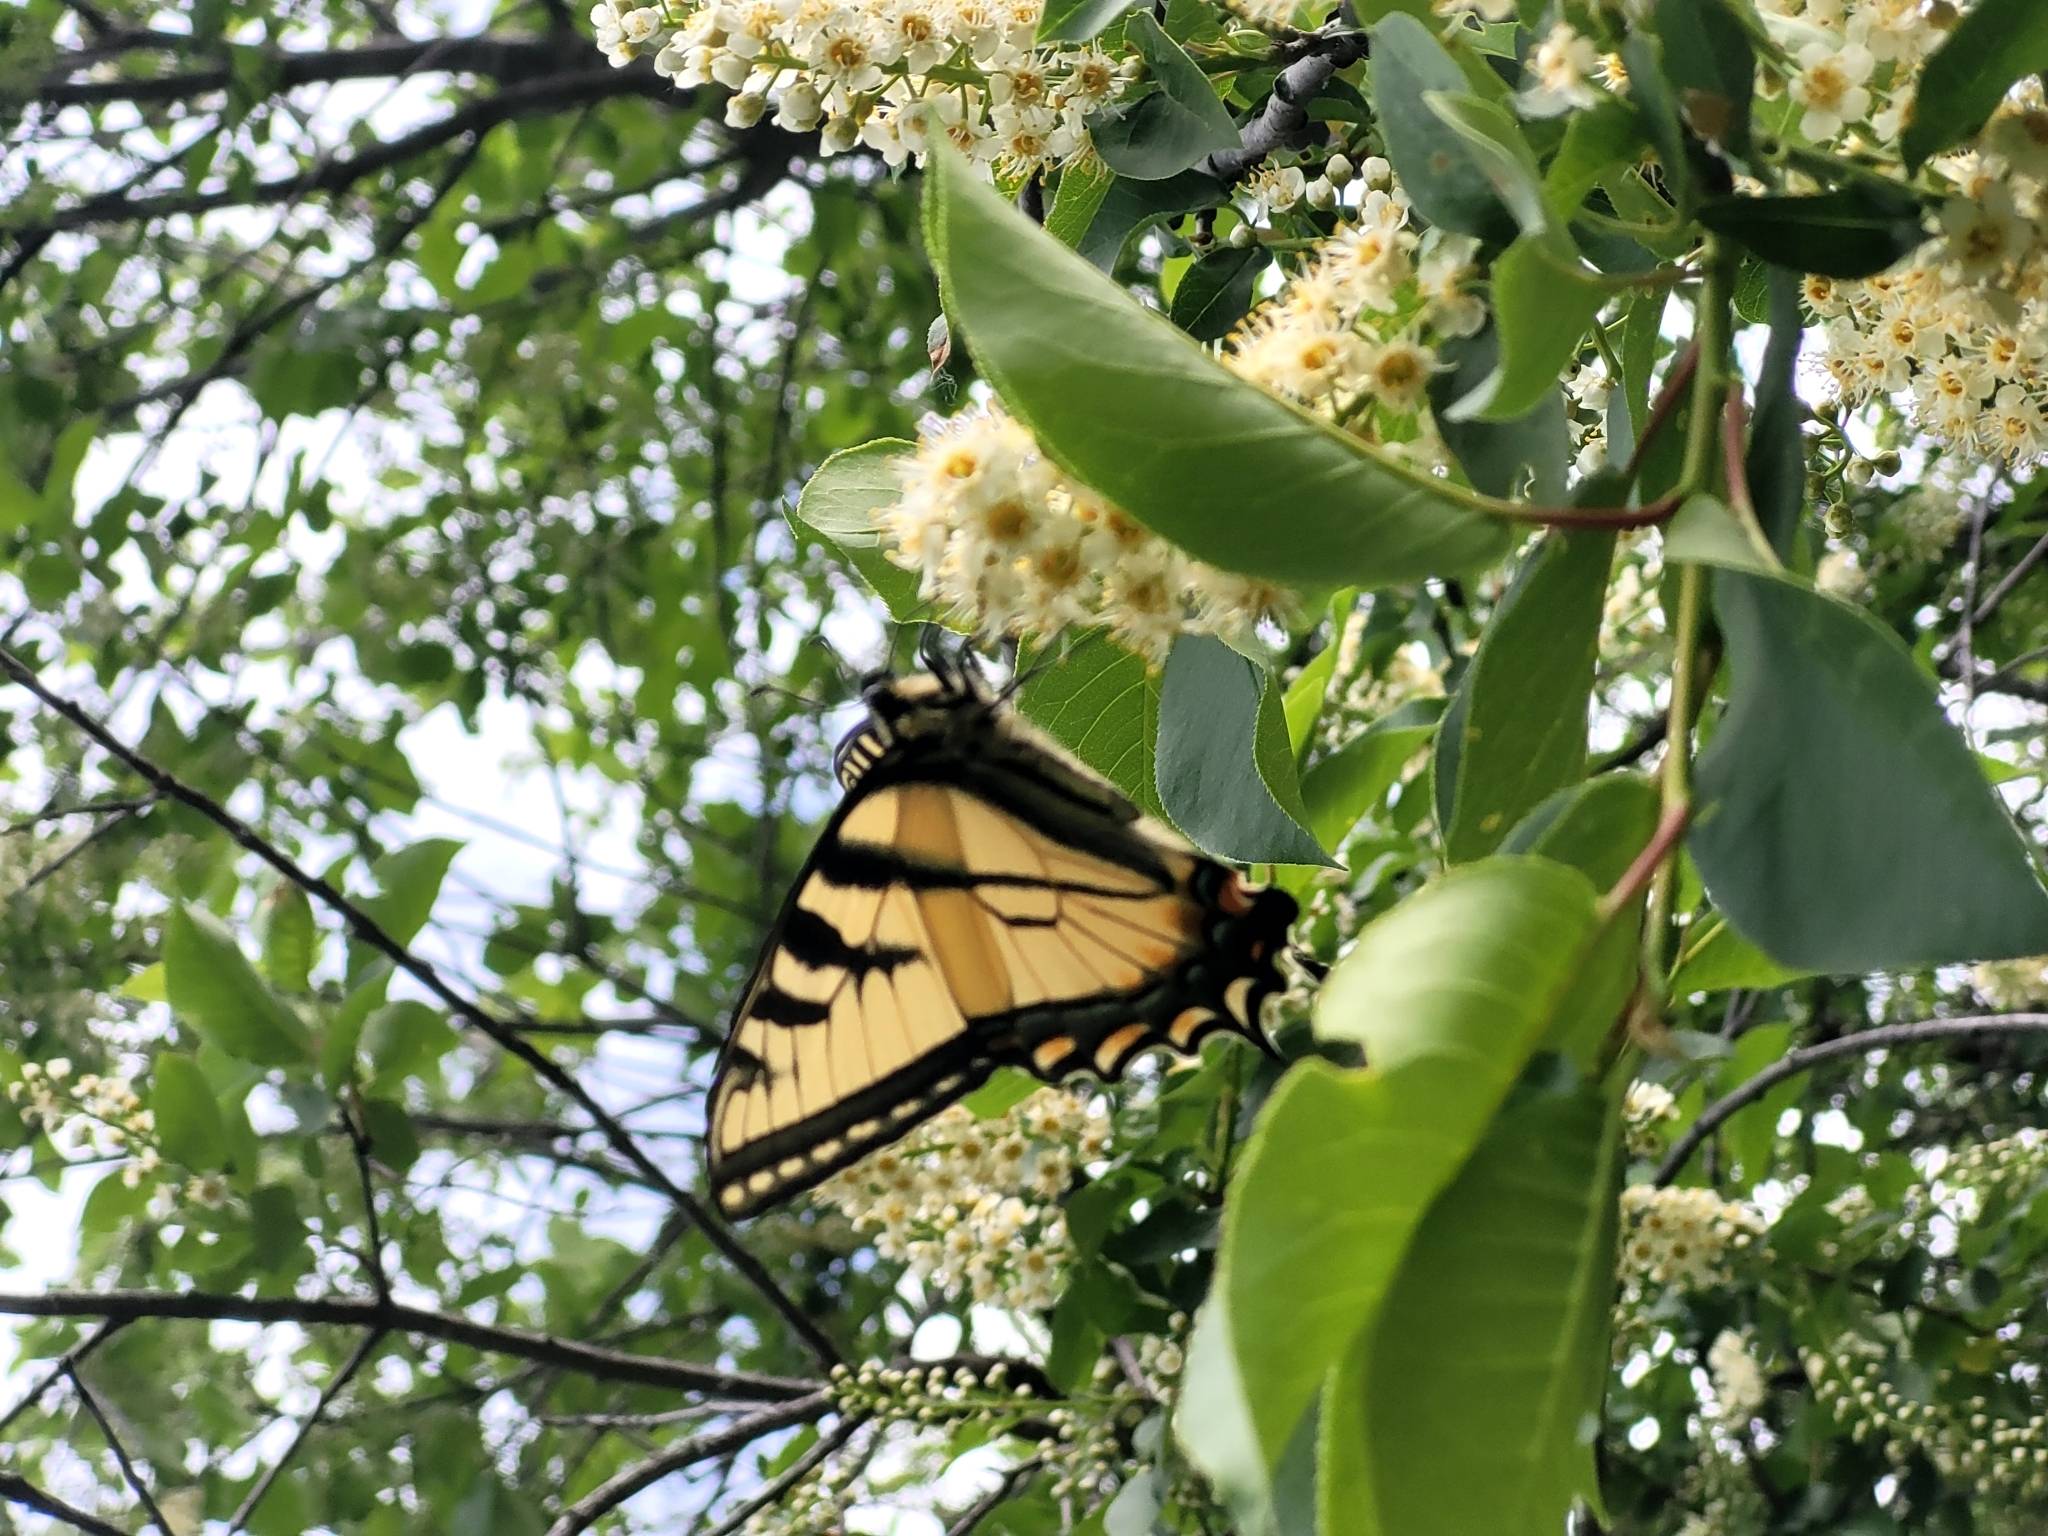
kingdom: Animalia
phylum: Arthropoda
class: Insecta
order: Lepidoptera
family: Papilionidae
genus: Papilio
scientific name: Papilio canadensis
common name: Canadian tiger swallowtail
